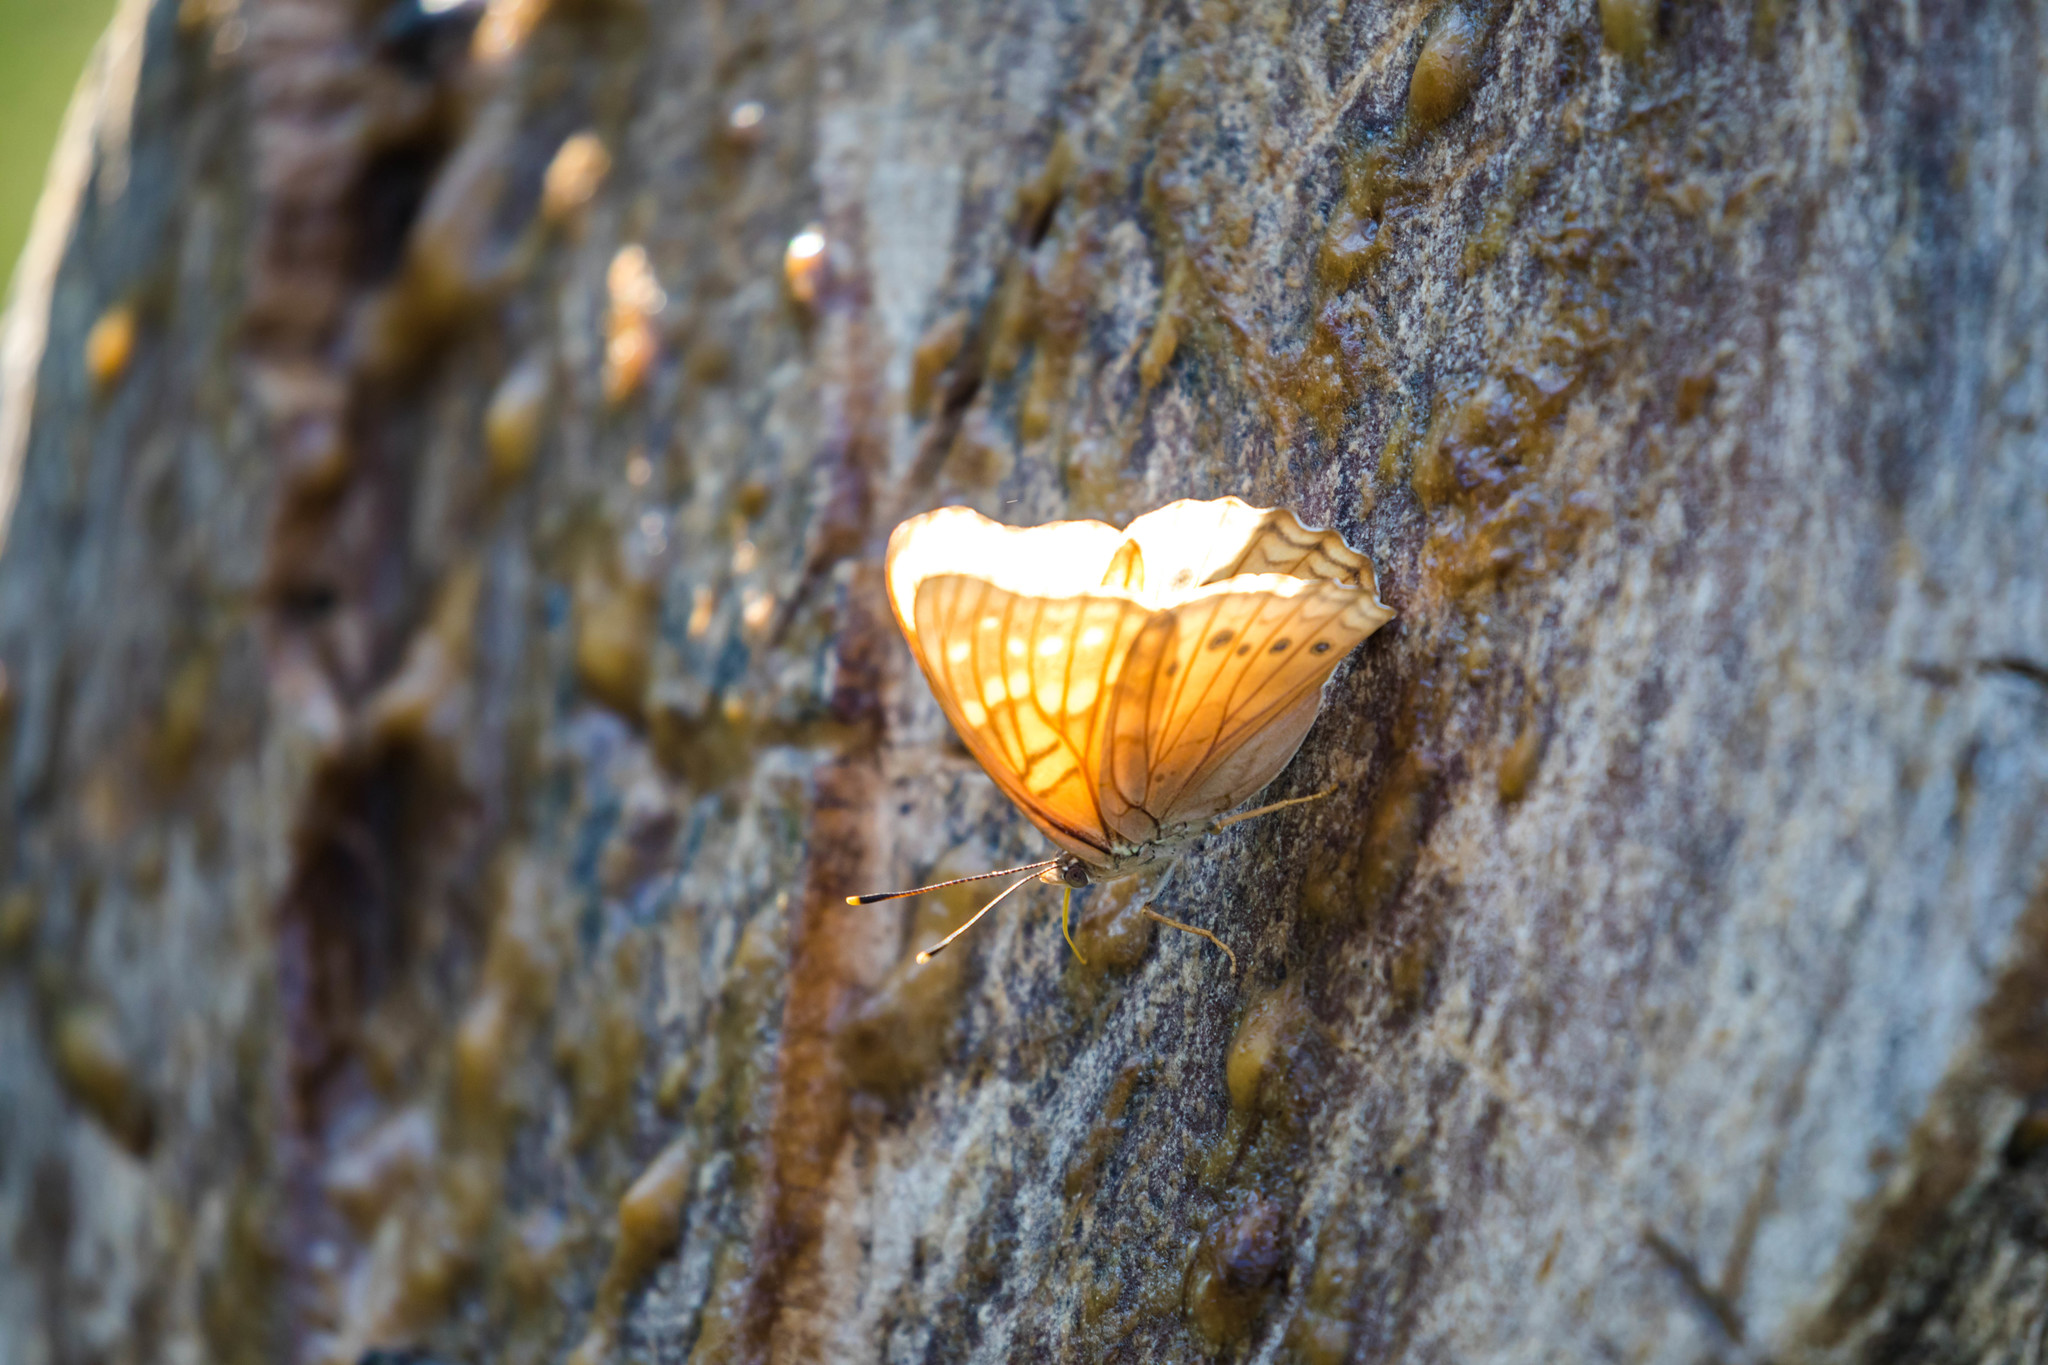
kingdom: Animalia
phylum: Arthropoda
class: Insecta
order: Lepidoptera
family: Nymphalidae
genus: Asterocampa
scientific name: Asterocampa clyton
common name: Tawny emperor
